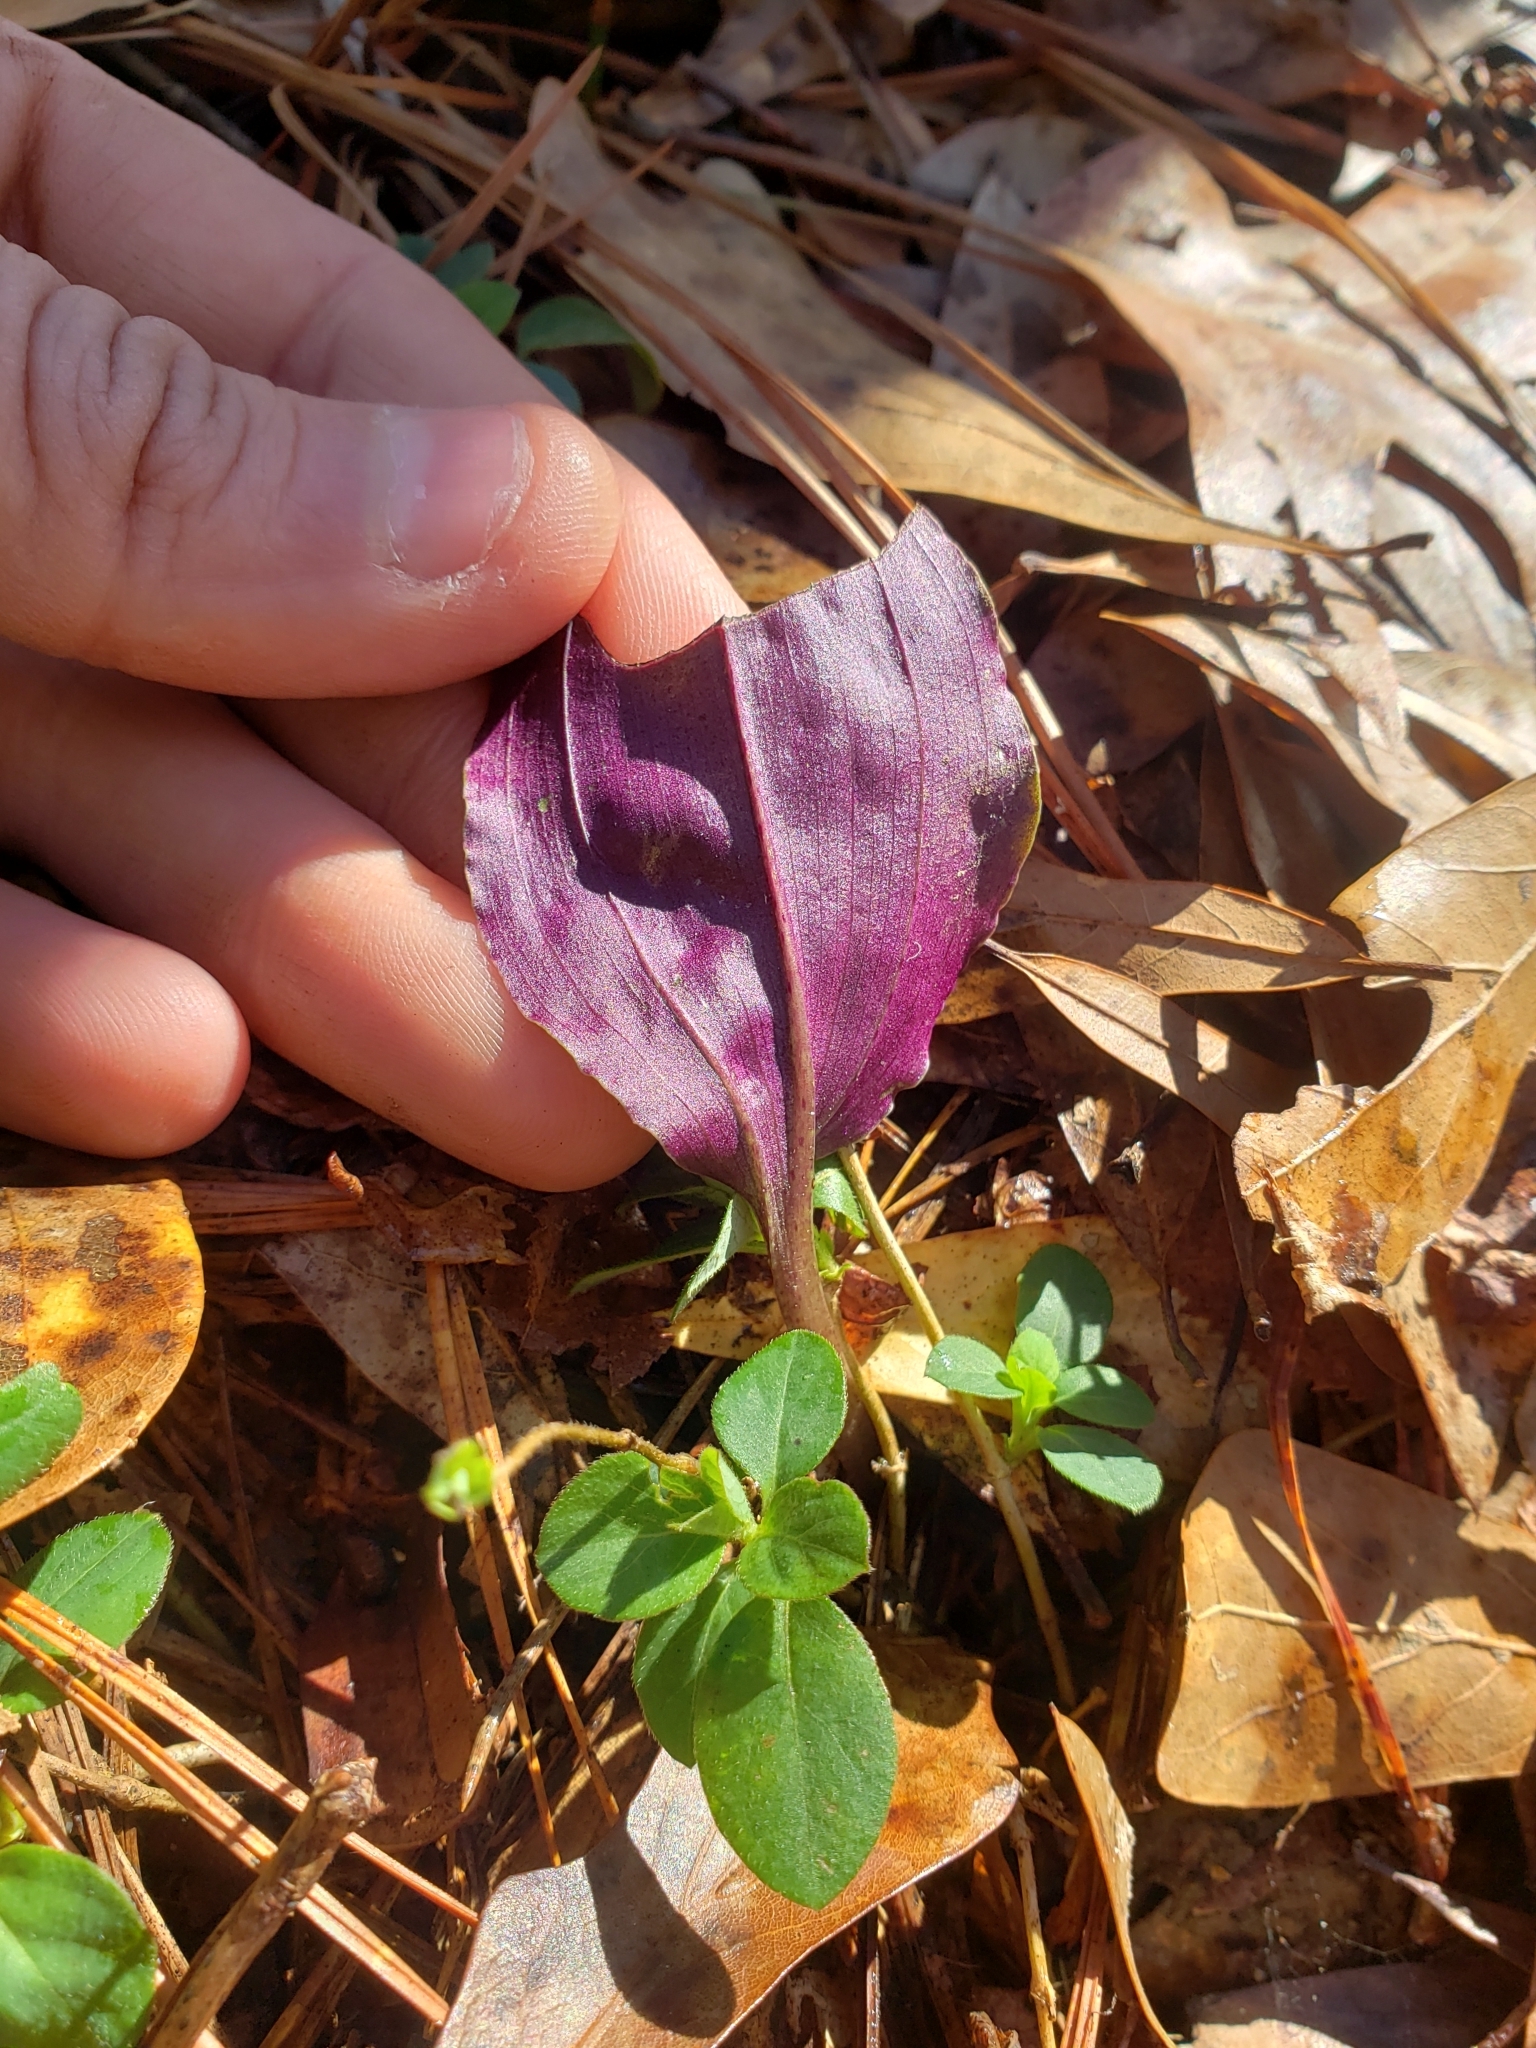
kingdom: Plantae
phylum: Tracheophyta
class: Liliopsida
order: Asparagales
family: Orchidaceae
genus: Tipularia
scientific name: Tipularia discolor
